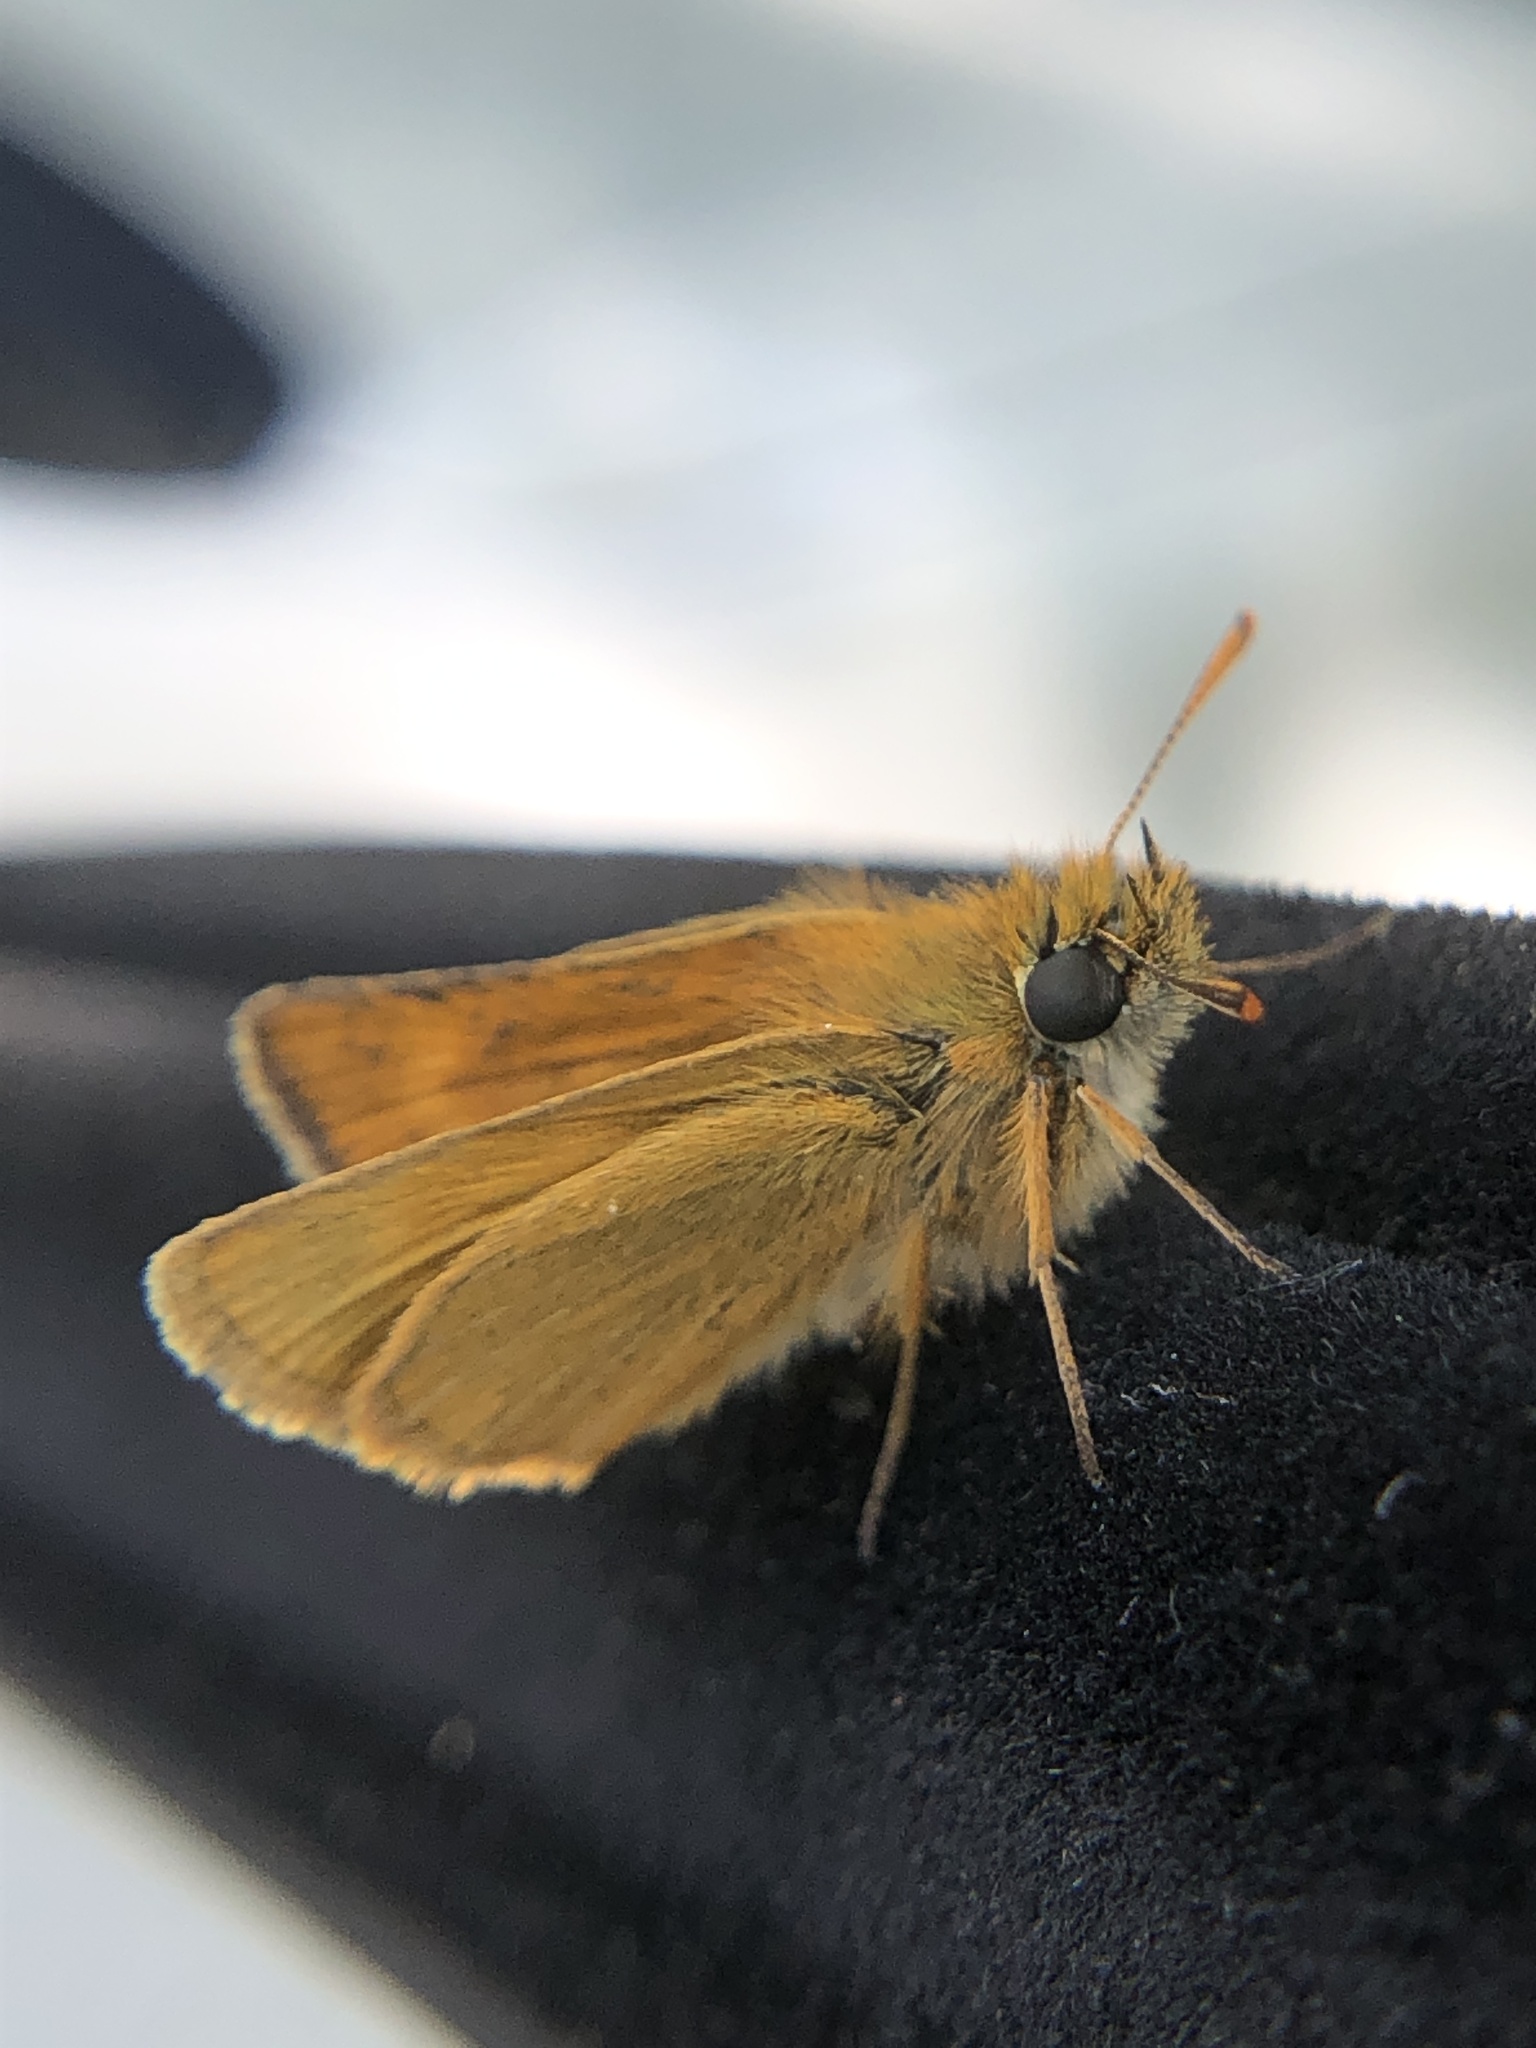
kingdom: Animalia
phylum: Arthropoda
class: Insecta
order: Lepidoptera
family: Hesperiidae
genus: Thymelicus
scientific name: Thymelicus acteon
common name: Lulworth skipper
